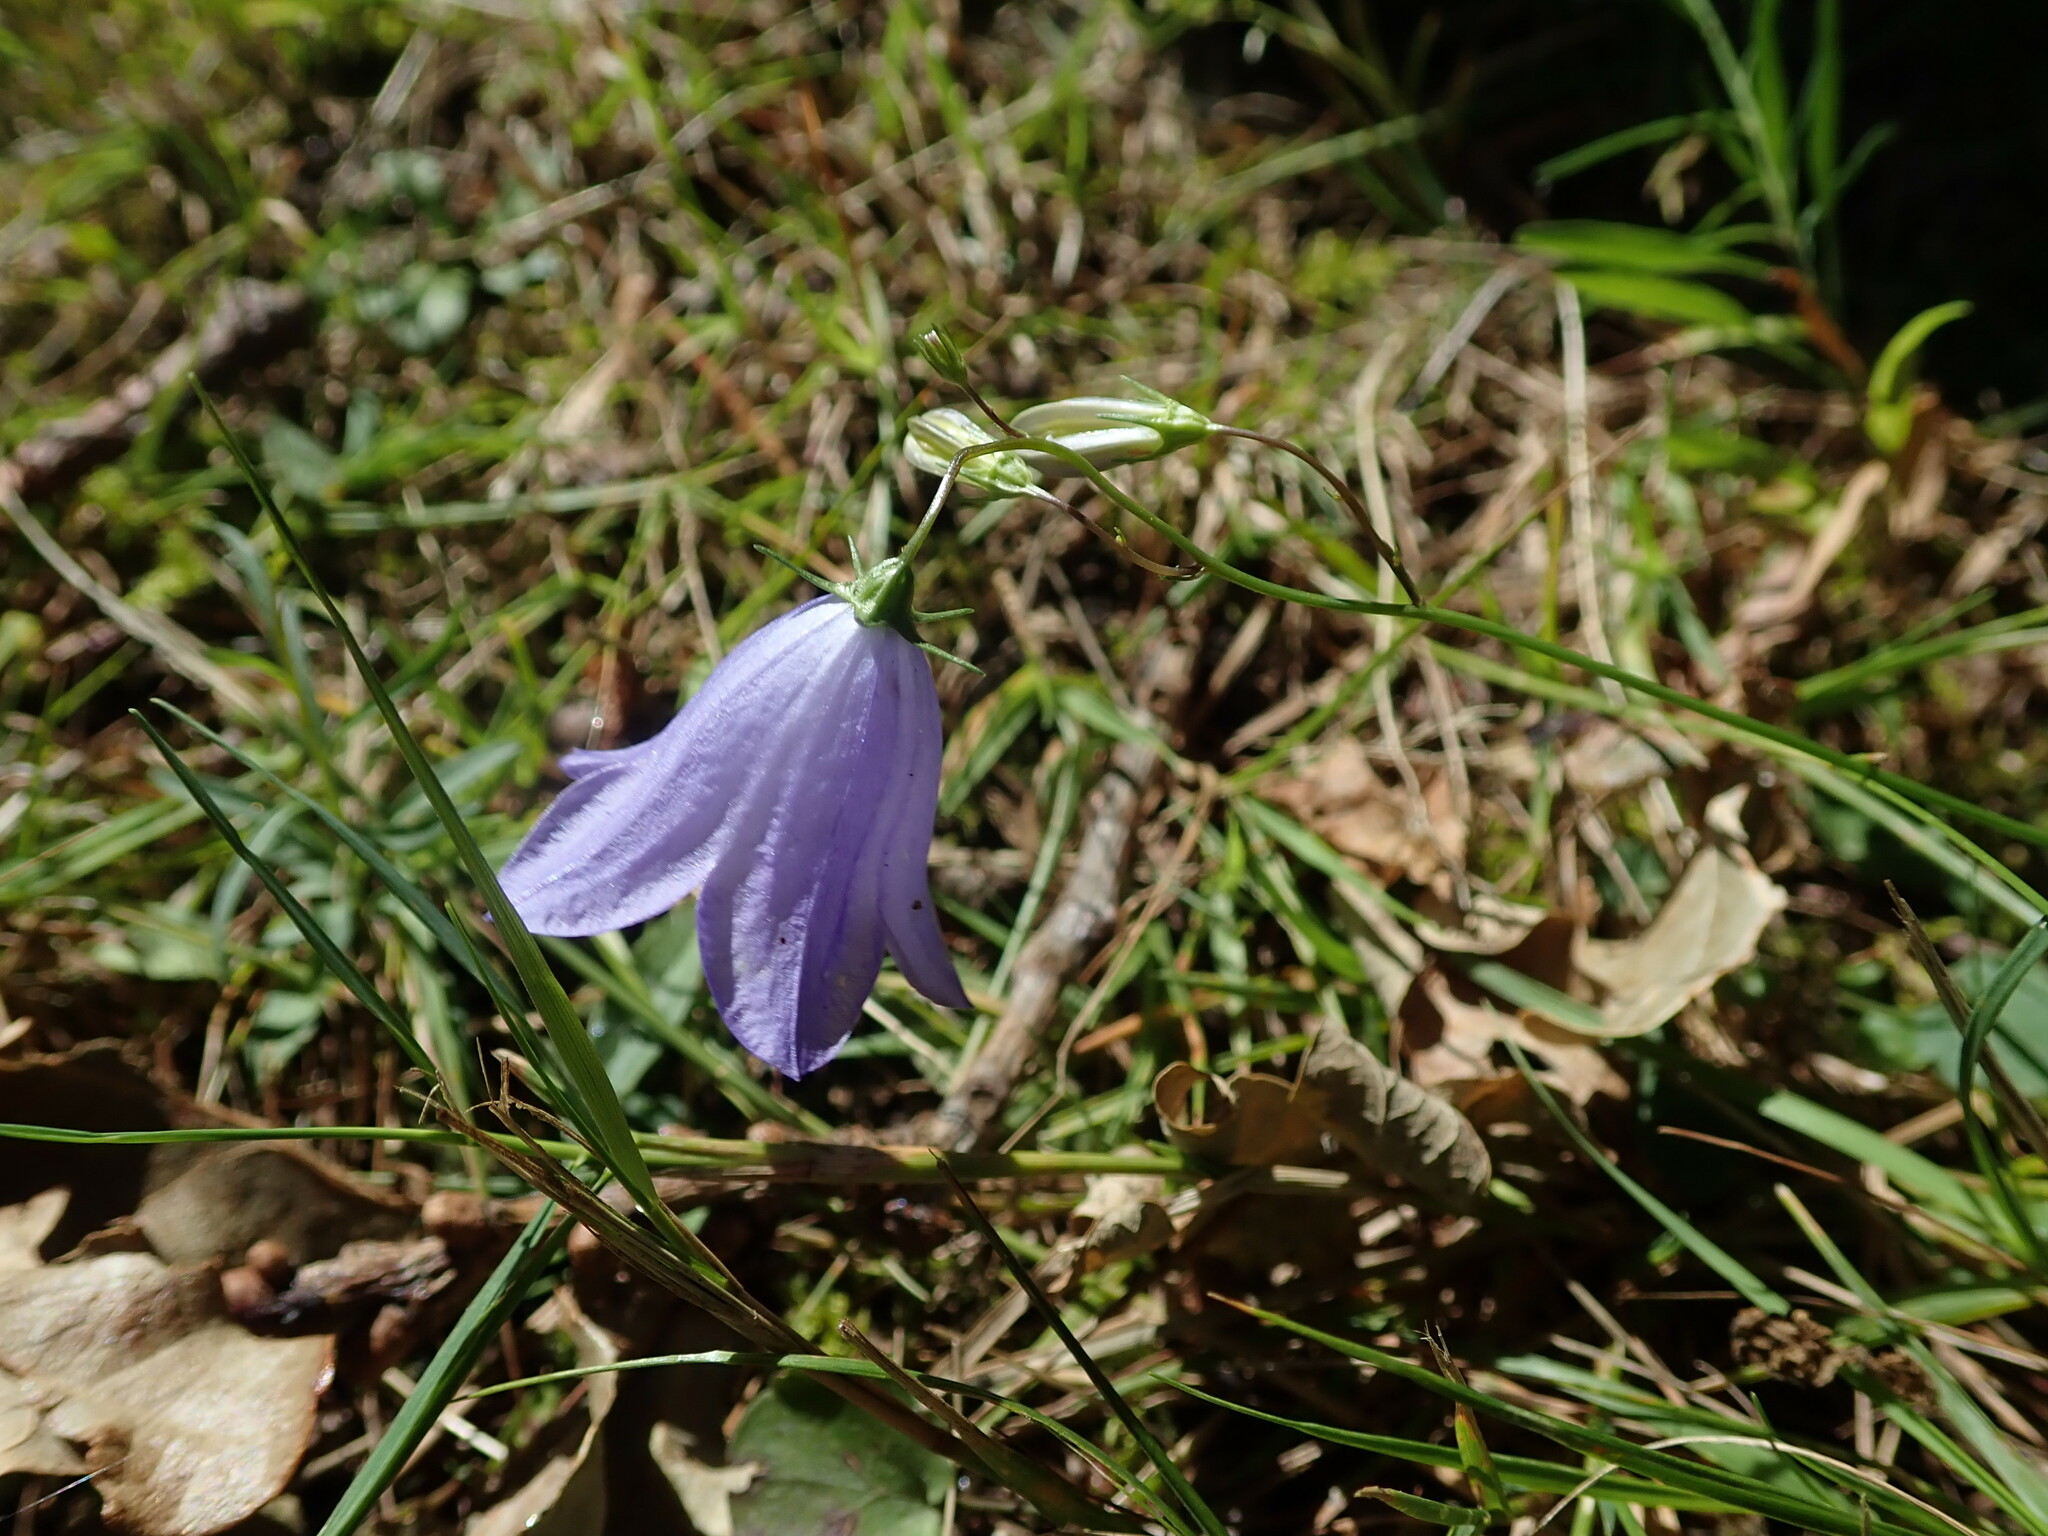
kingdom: Plantae
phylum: Tracheophyta
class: Magnoliopsida
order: Asterales
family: Campanulaceae
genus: Campanula
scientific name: Campanula rotundifolia
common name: Harebell
